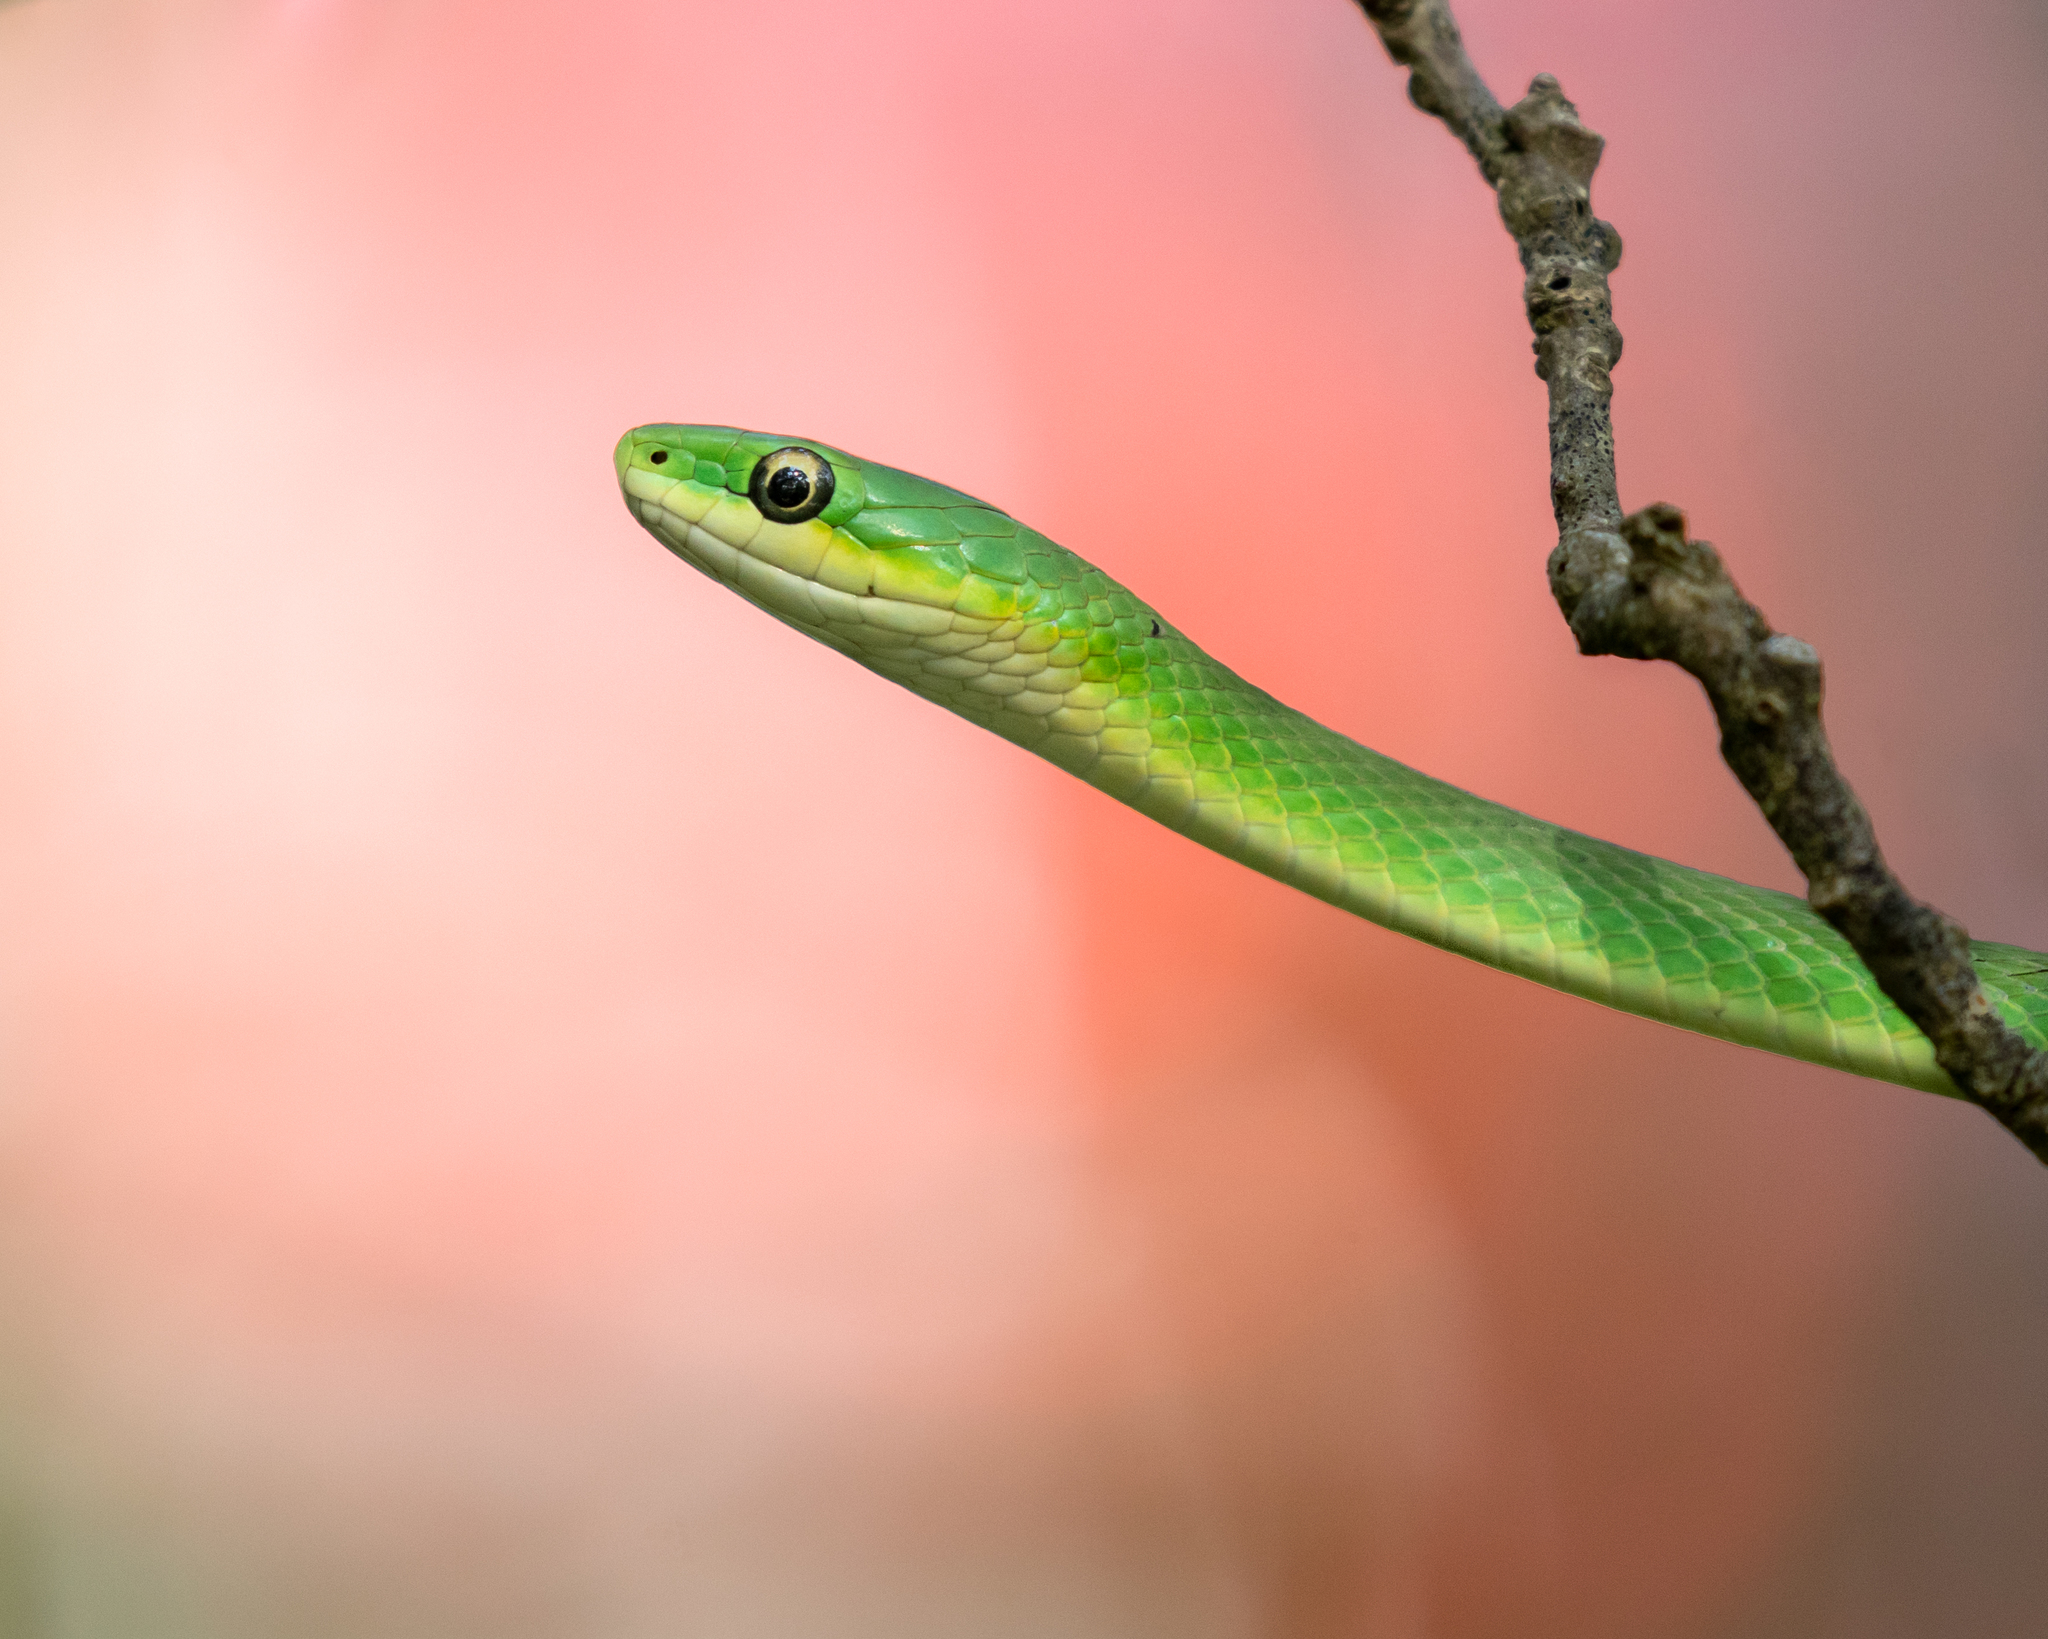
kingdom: Animalia
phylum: Chordata
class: Squamata
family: Colubridae
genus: Opheodrys
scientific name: Opheodrys aestivus
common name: Rough greensnake
